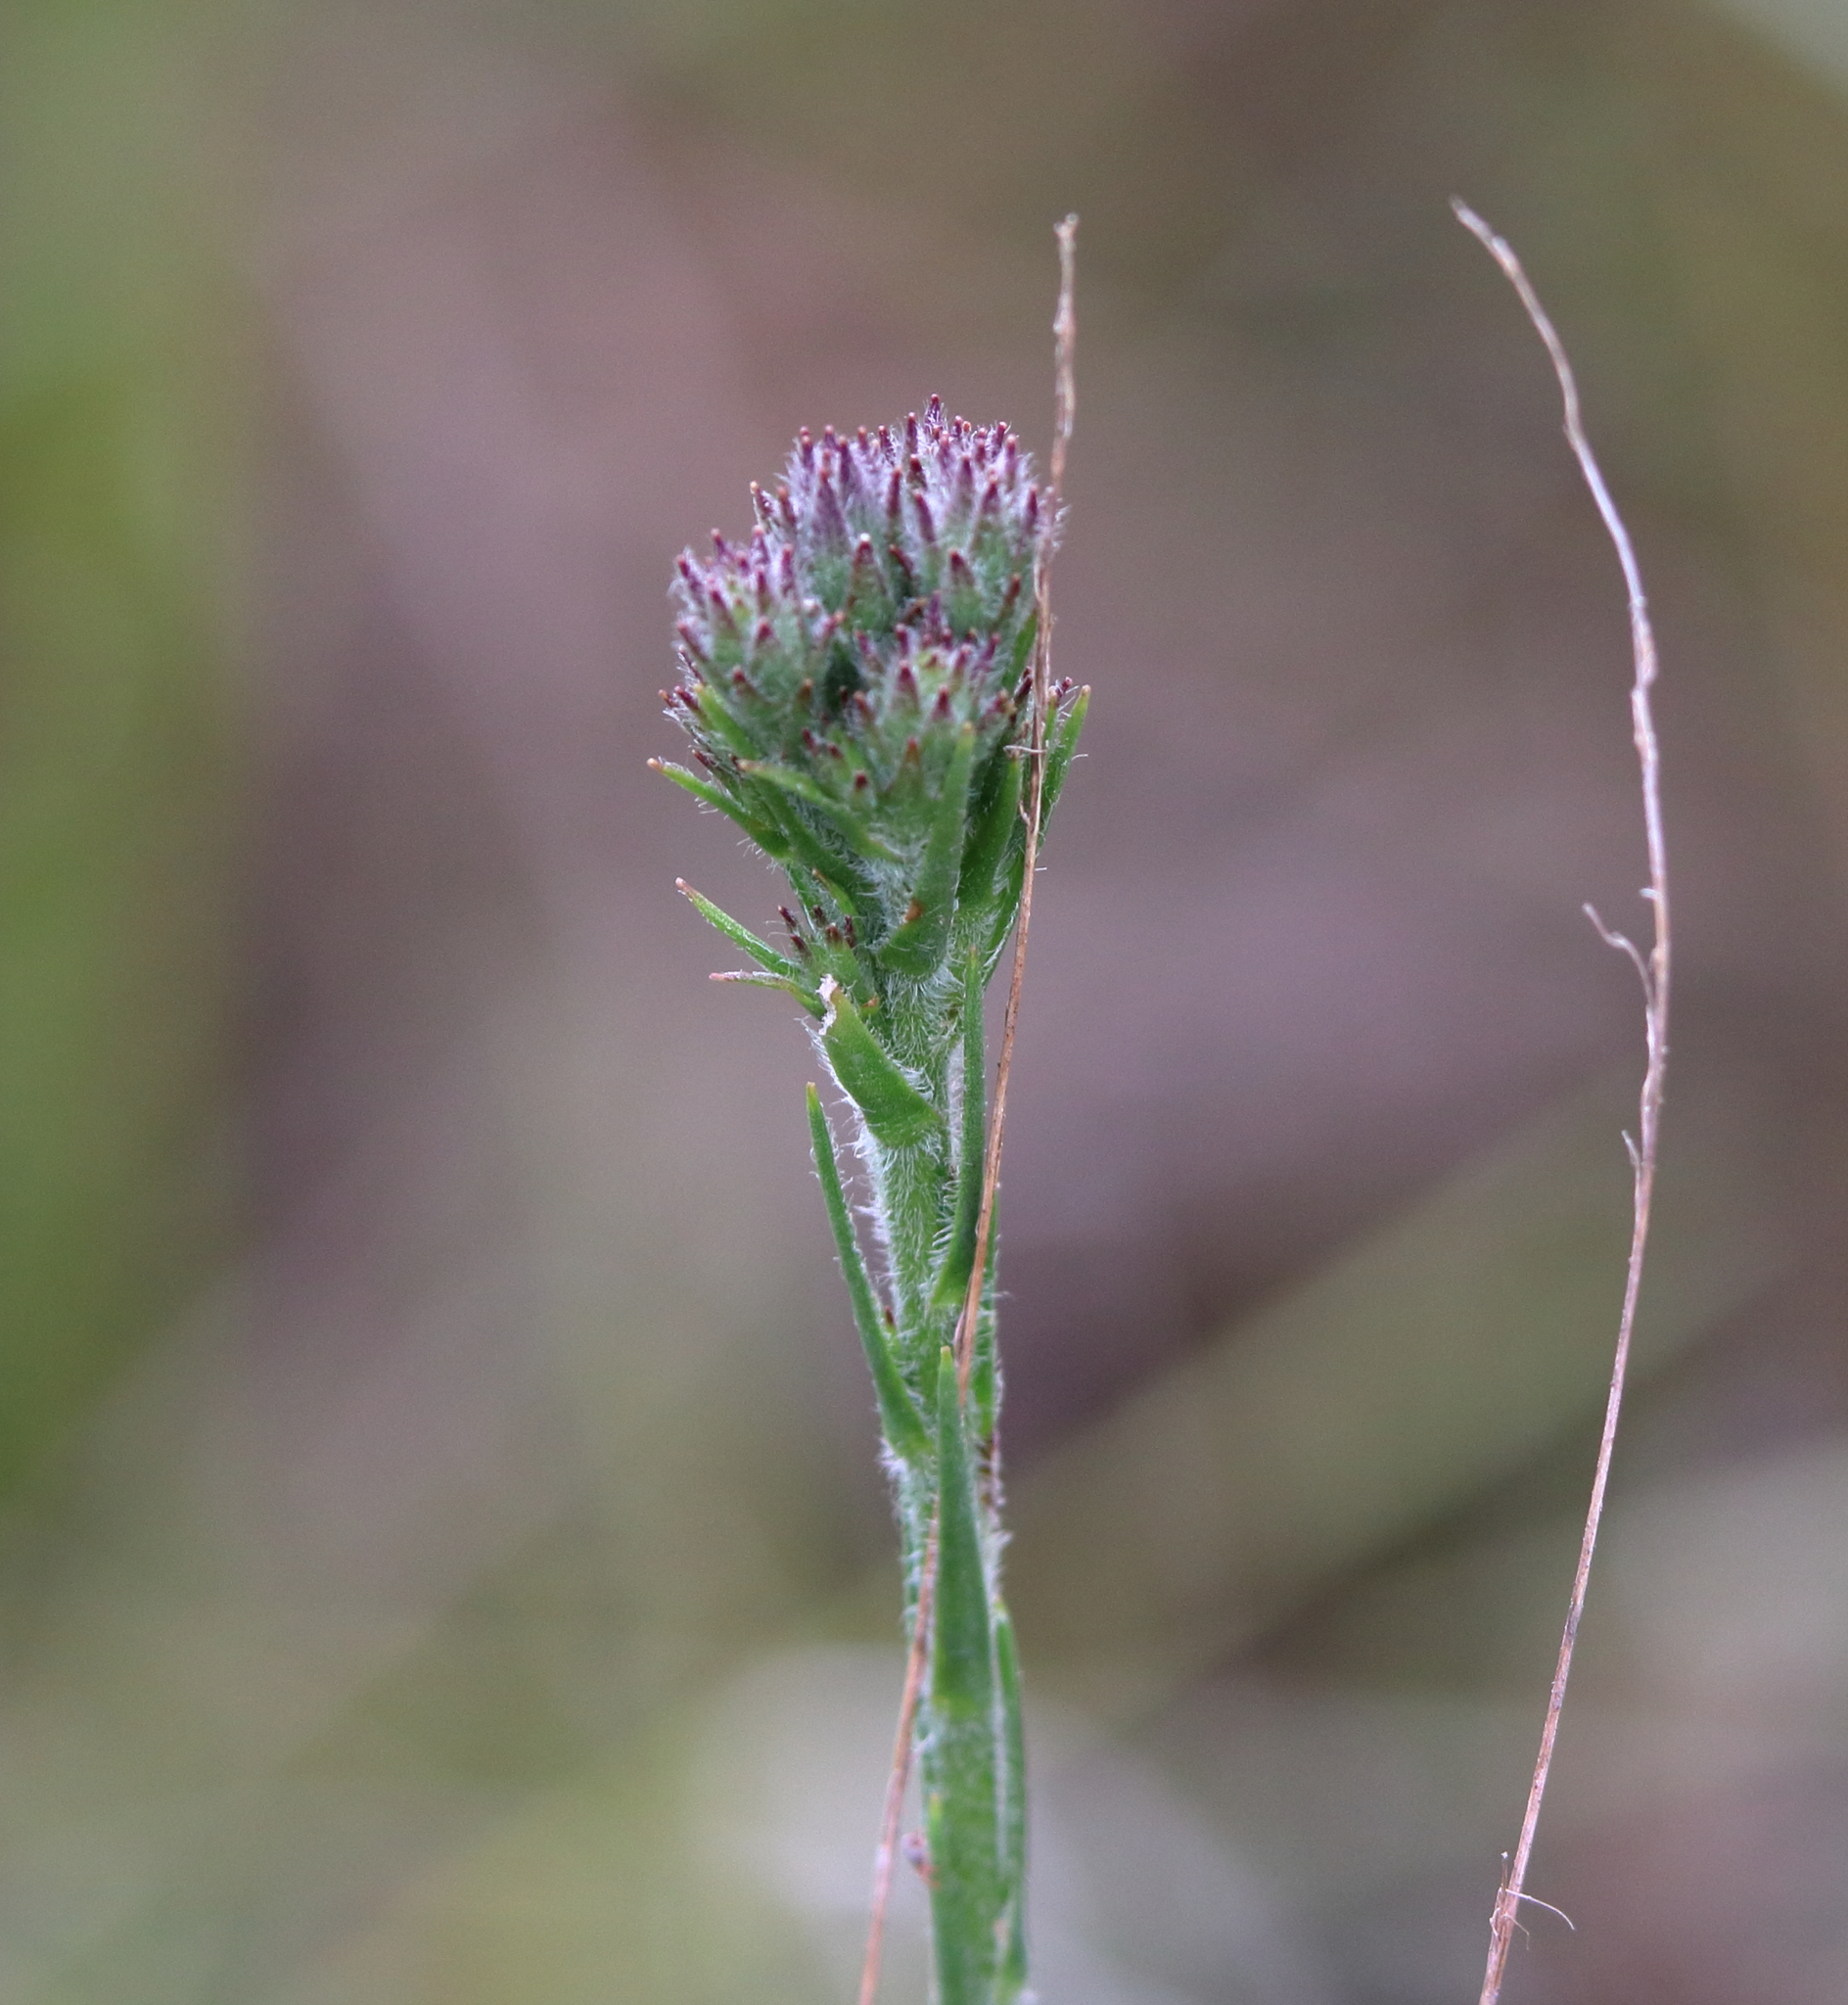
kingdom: Plantae
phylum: Tracheophyta
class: Magnoliopsida
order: Asterales
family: Asteraceae
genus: Carphephorus
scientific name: Carphephorus pseudoliatris
